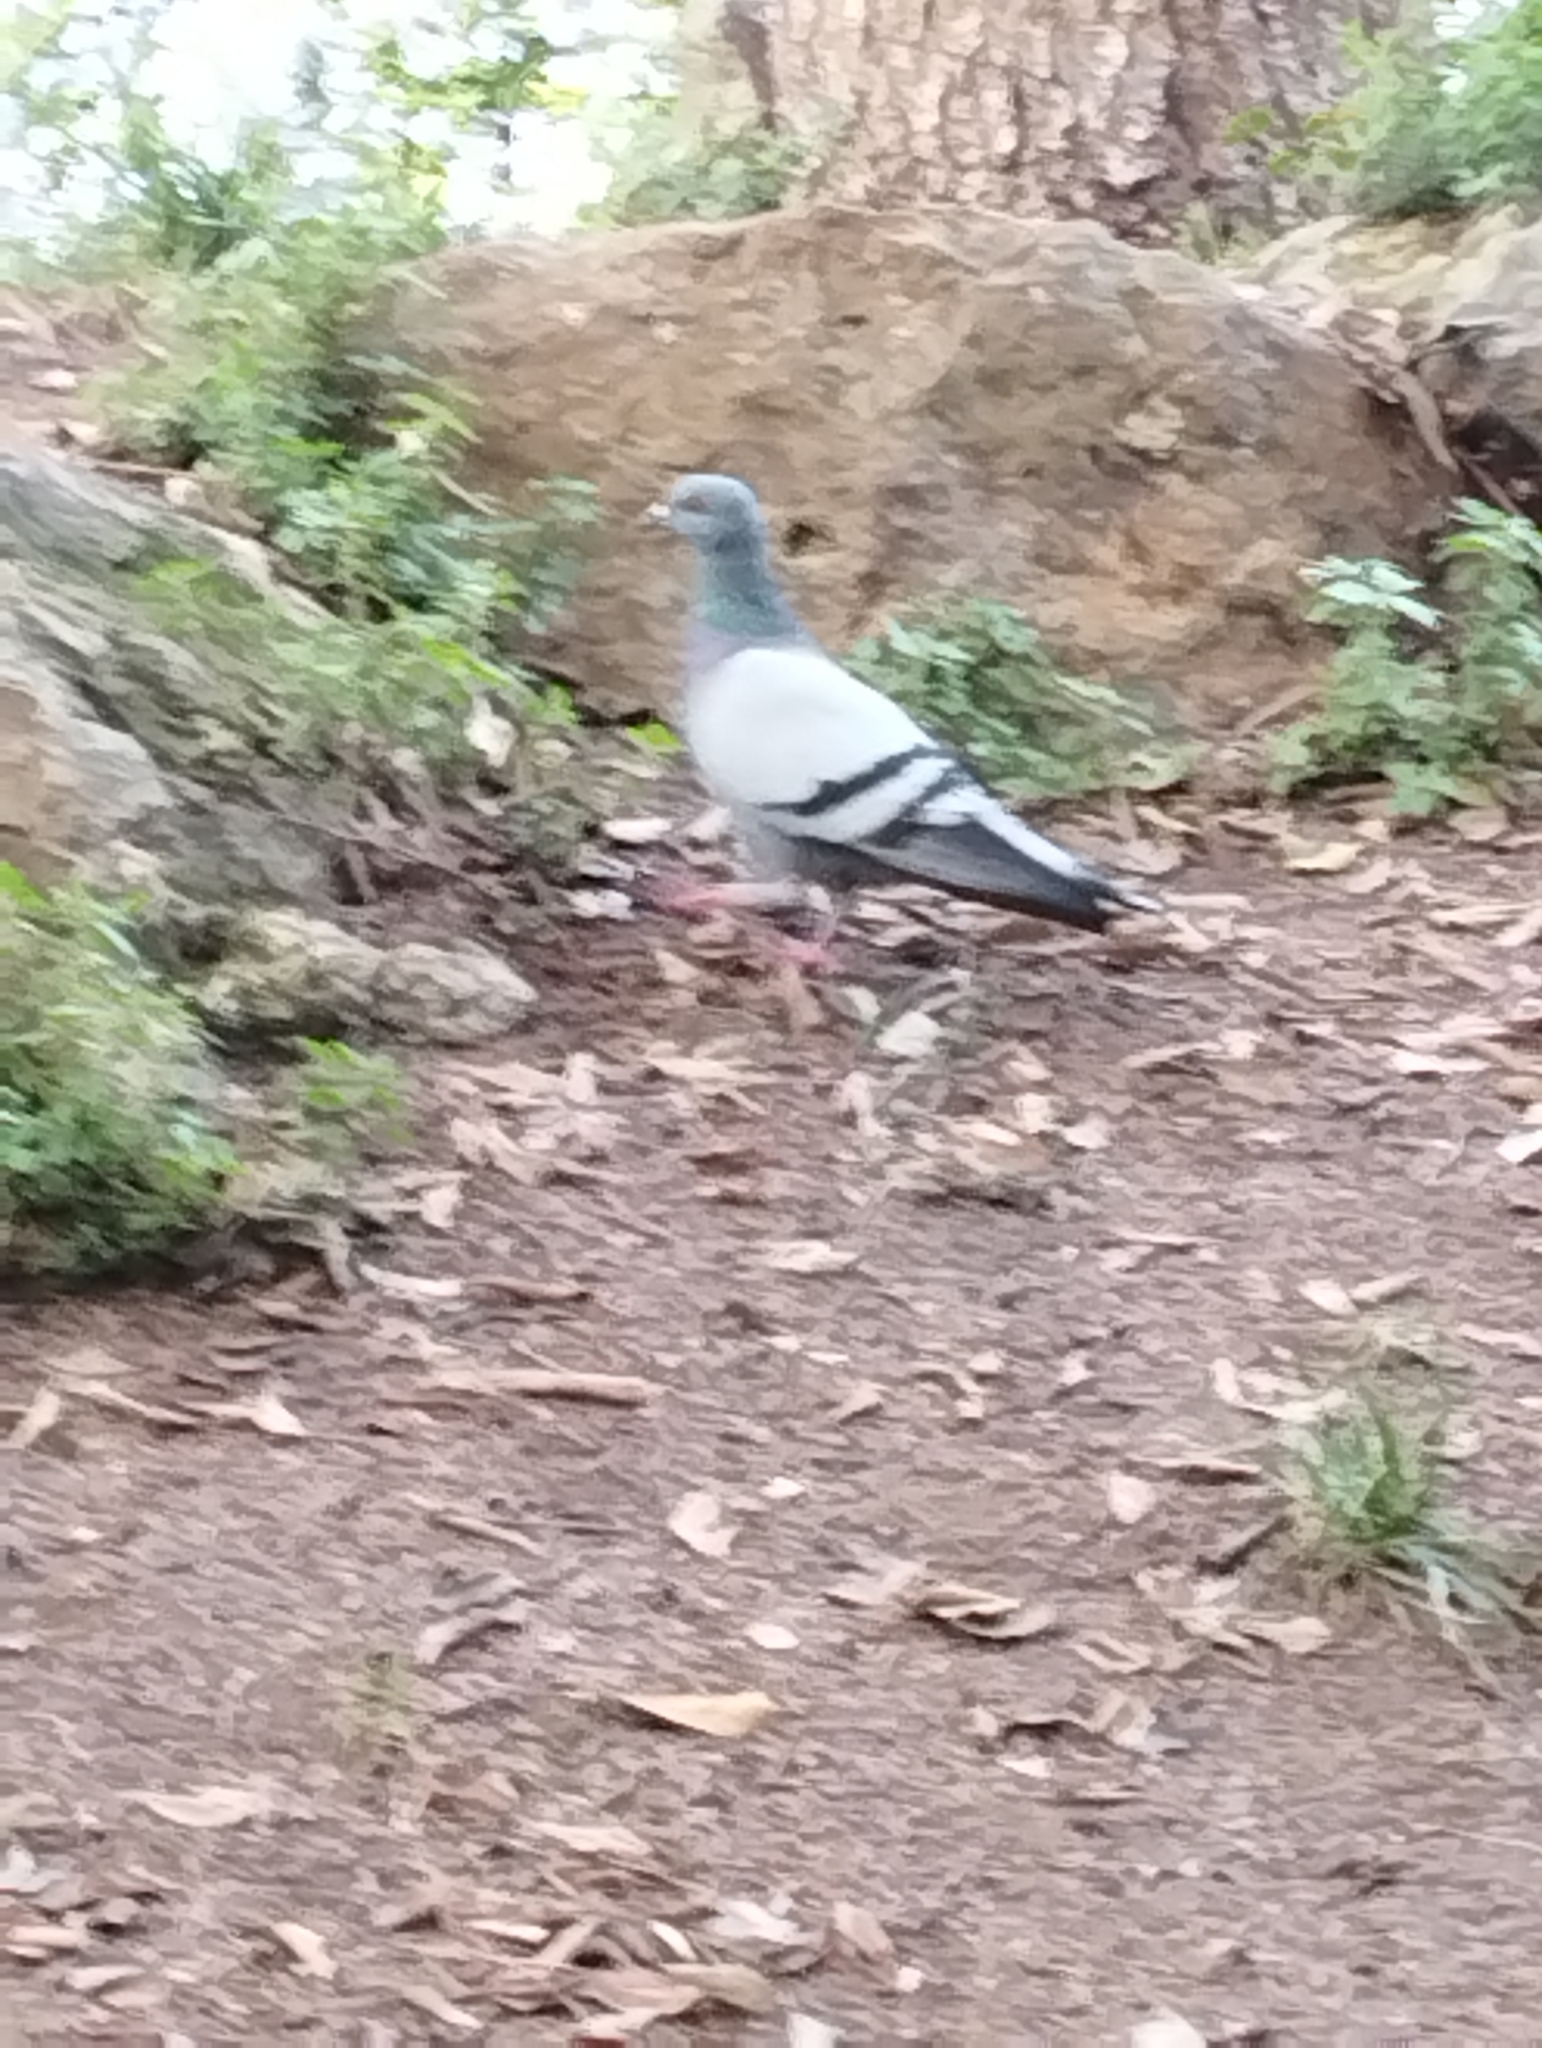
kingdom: Animalia
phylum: Chordata
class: Aves
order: Columbiformes
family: Columbidae
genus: Columba
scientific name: Columba livia
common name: Rock pigeon
